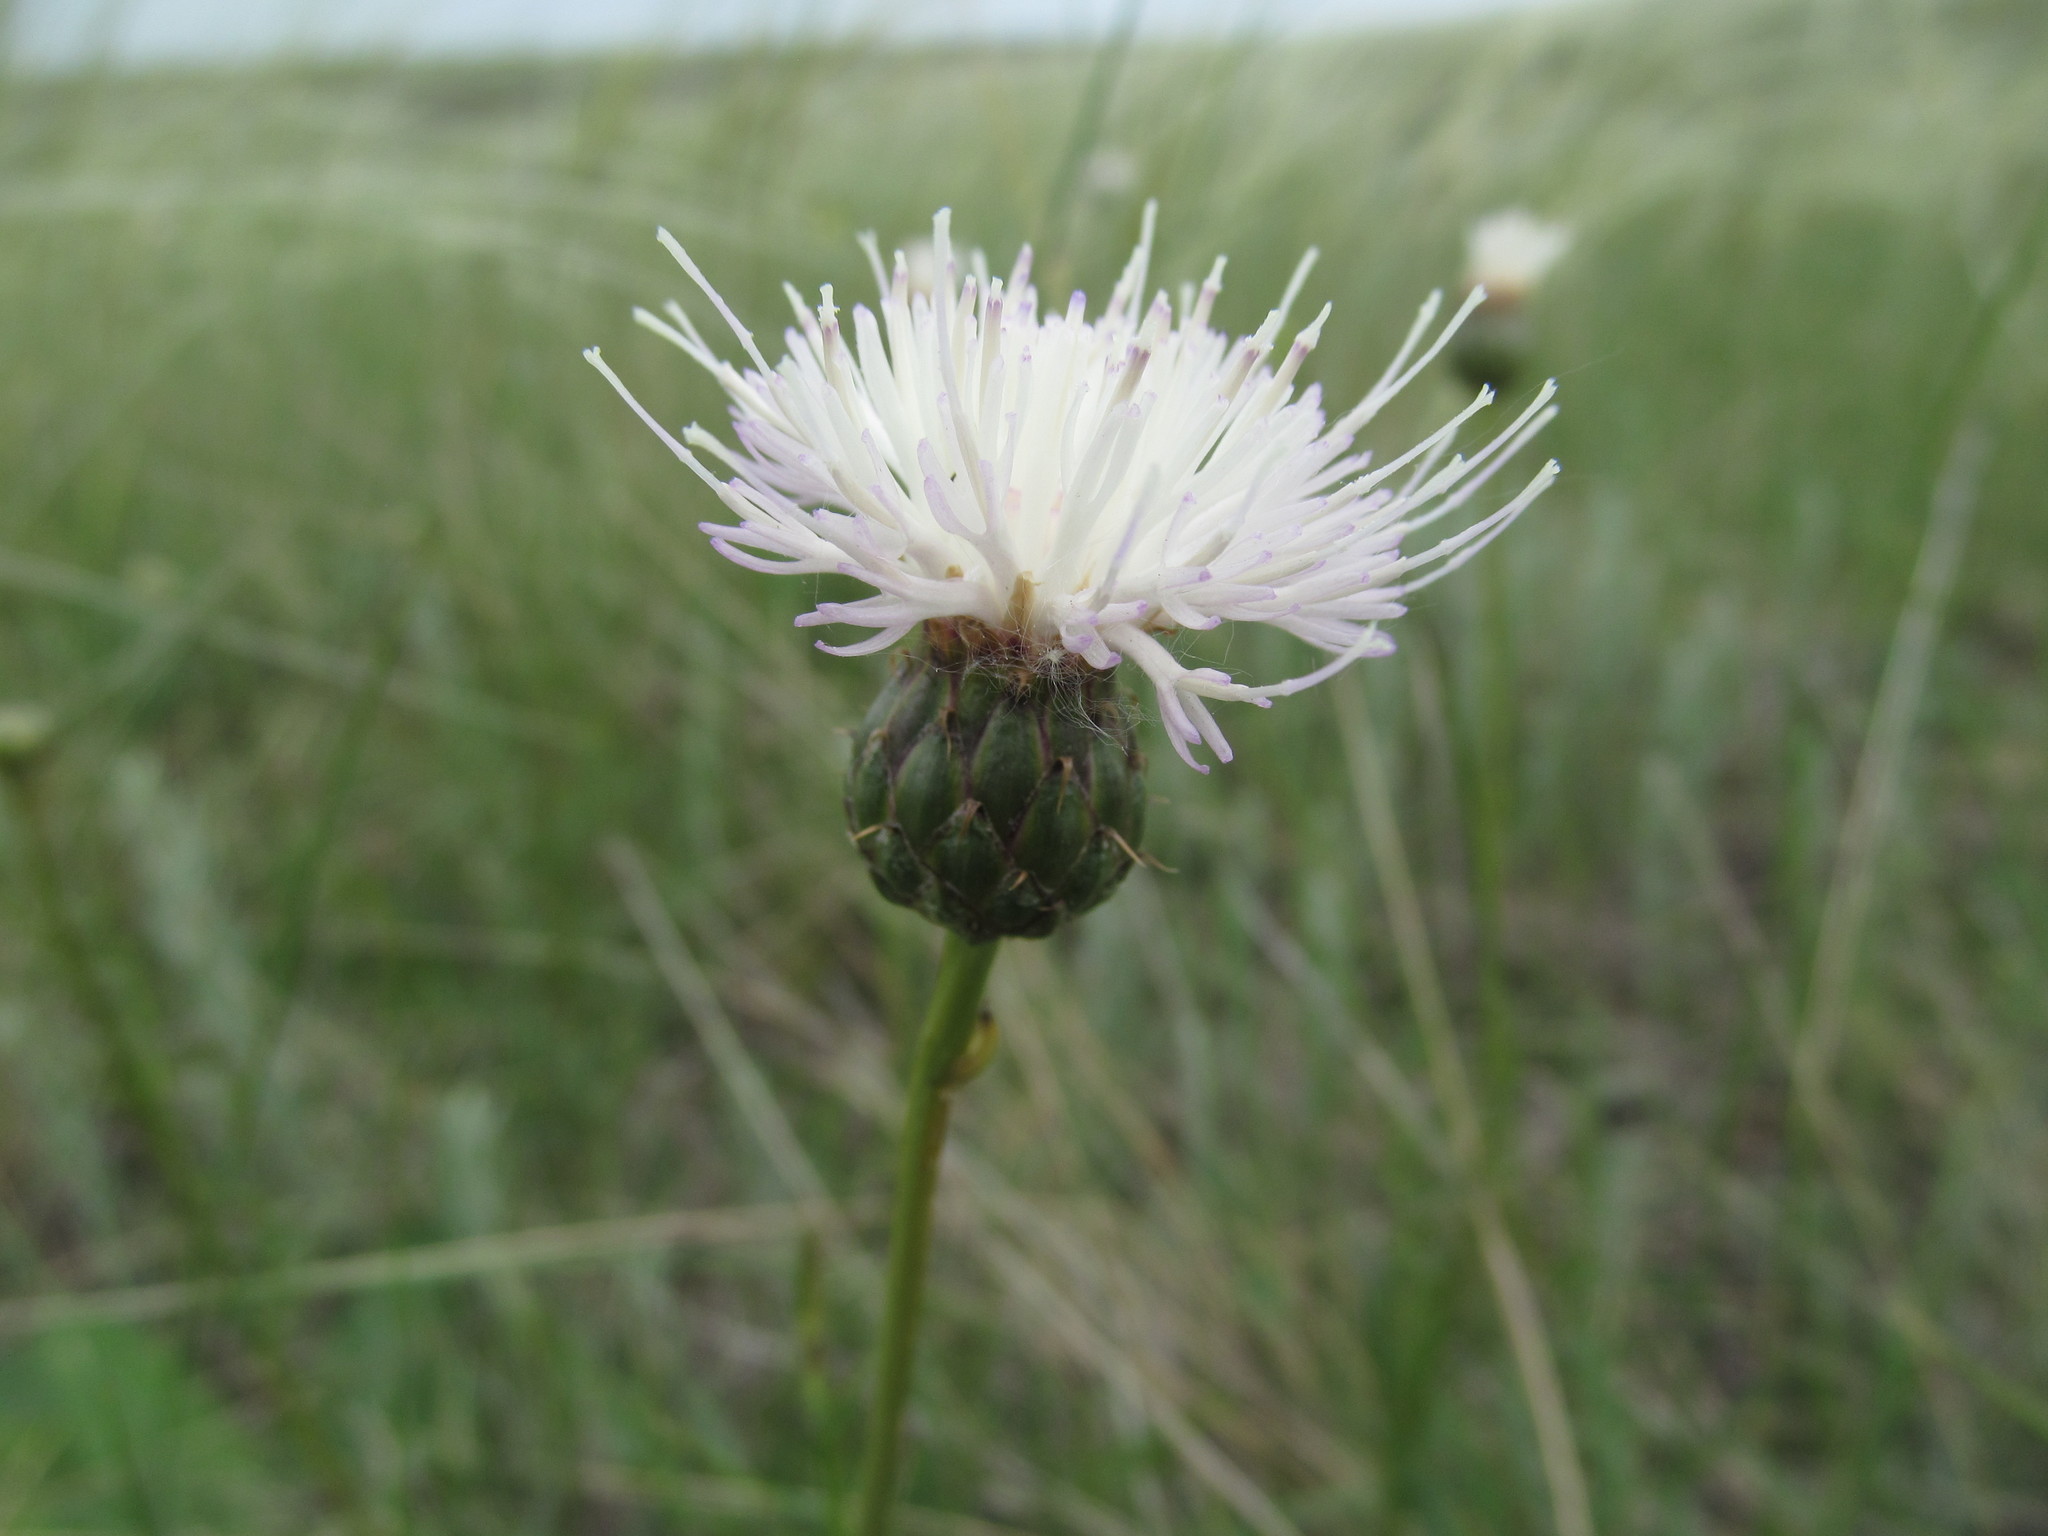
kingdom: Plantae
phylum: Tracheophyta
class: Magnoliopsida
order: Asterales
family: Asteraceae
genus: Klasea
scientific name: Klasea radiata
